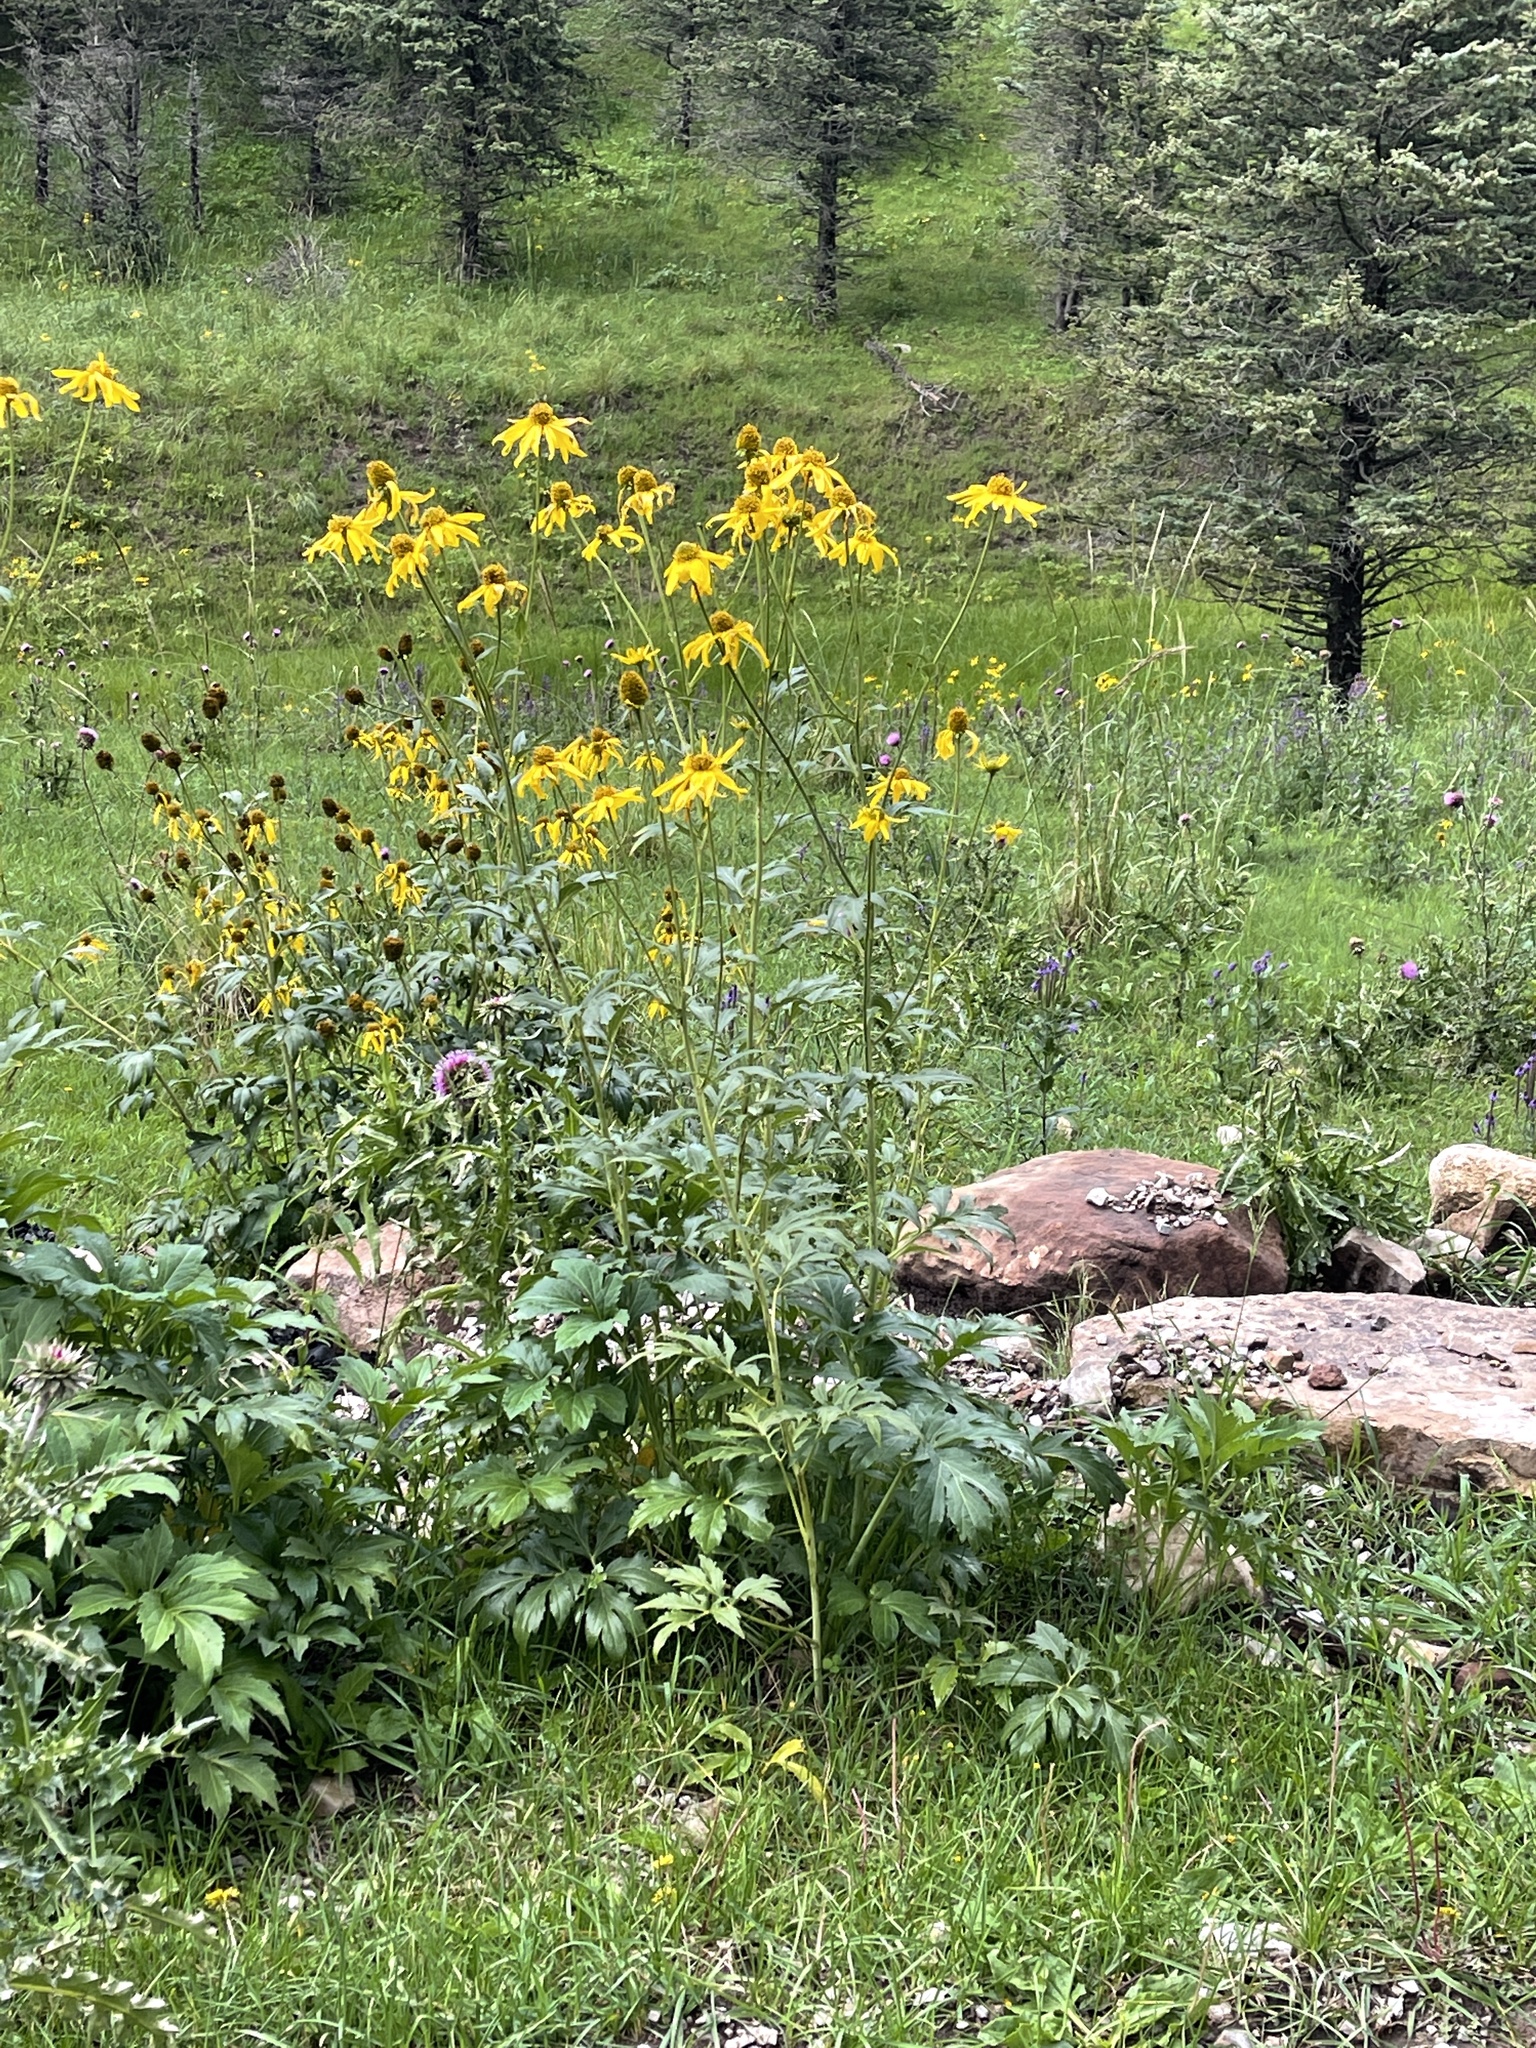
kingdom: Plantae
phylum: Tracheophyta
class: Magnoliopsida
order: Asterales
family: Asteraceae
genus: Rudbeckia
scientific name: Rudbeckia laciniata
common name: Coneflower
